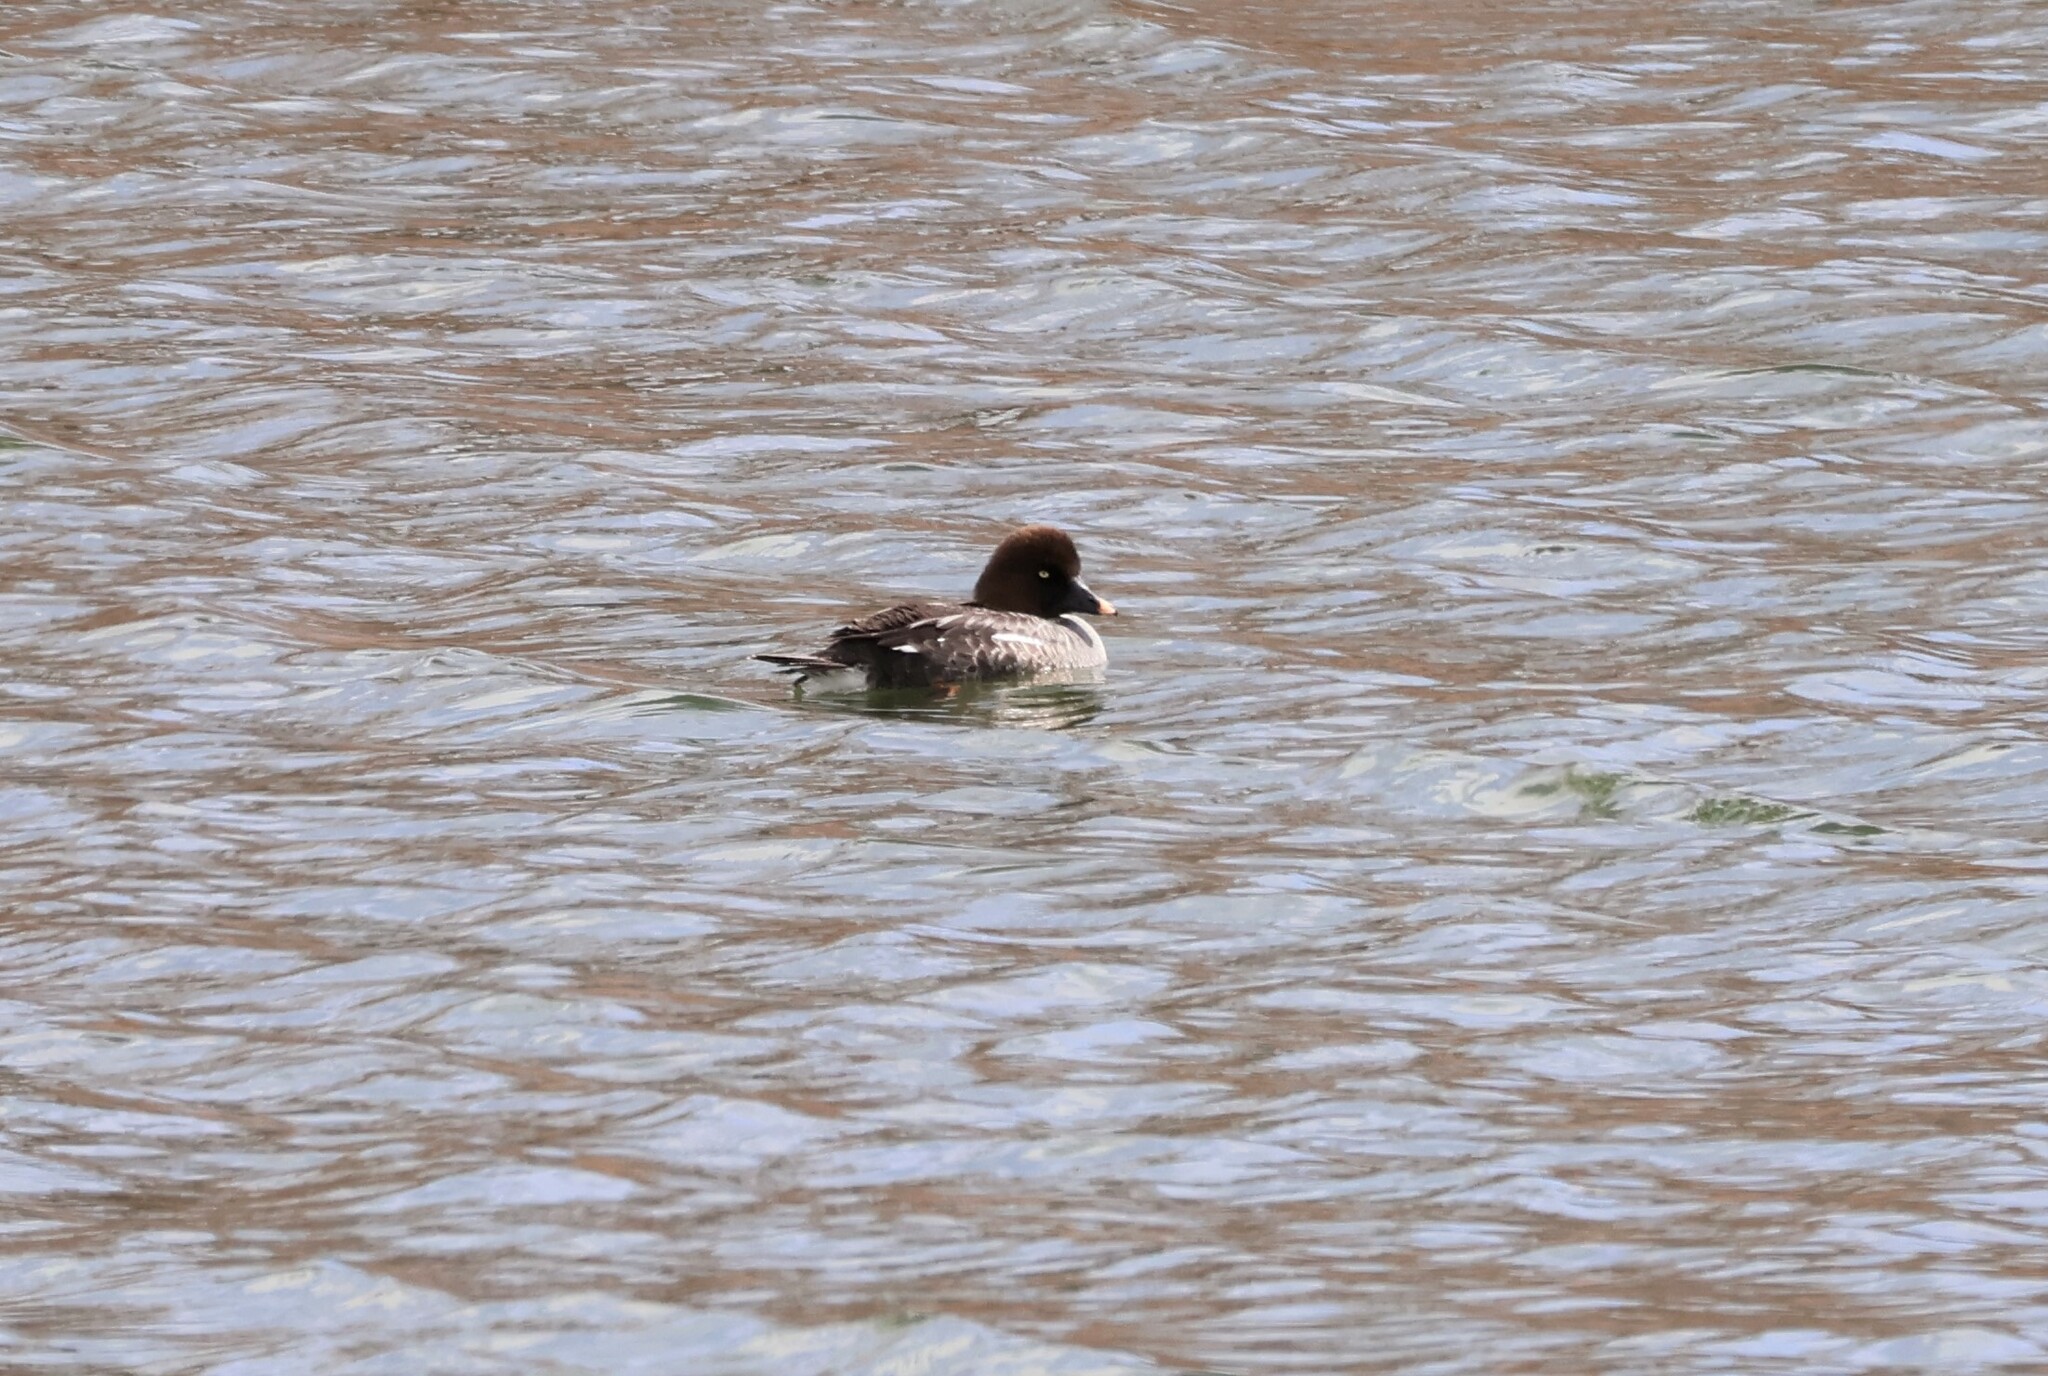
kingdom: Animalia
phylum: Chordata
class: Aves
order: Anseriformes
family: Anatidae
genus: Bucephala
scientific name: Bucephala clangula
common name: Common goldeneye
